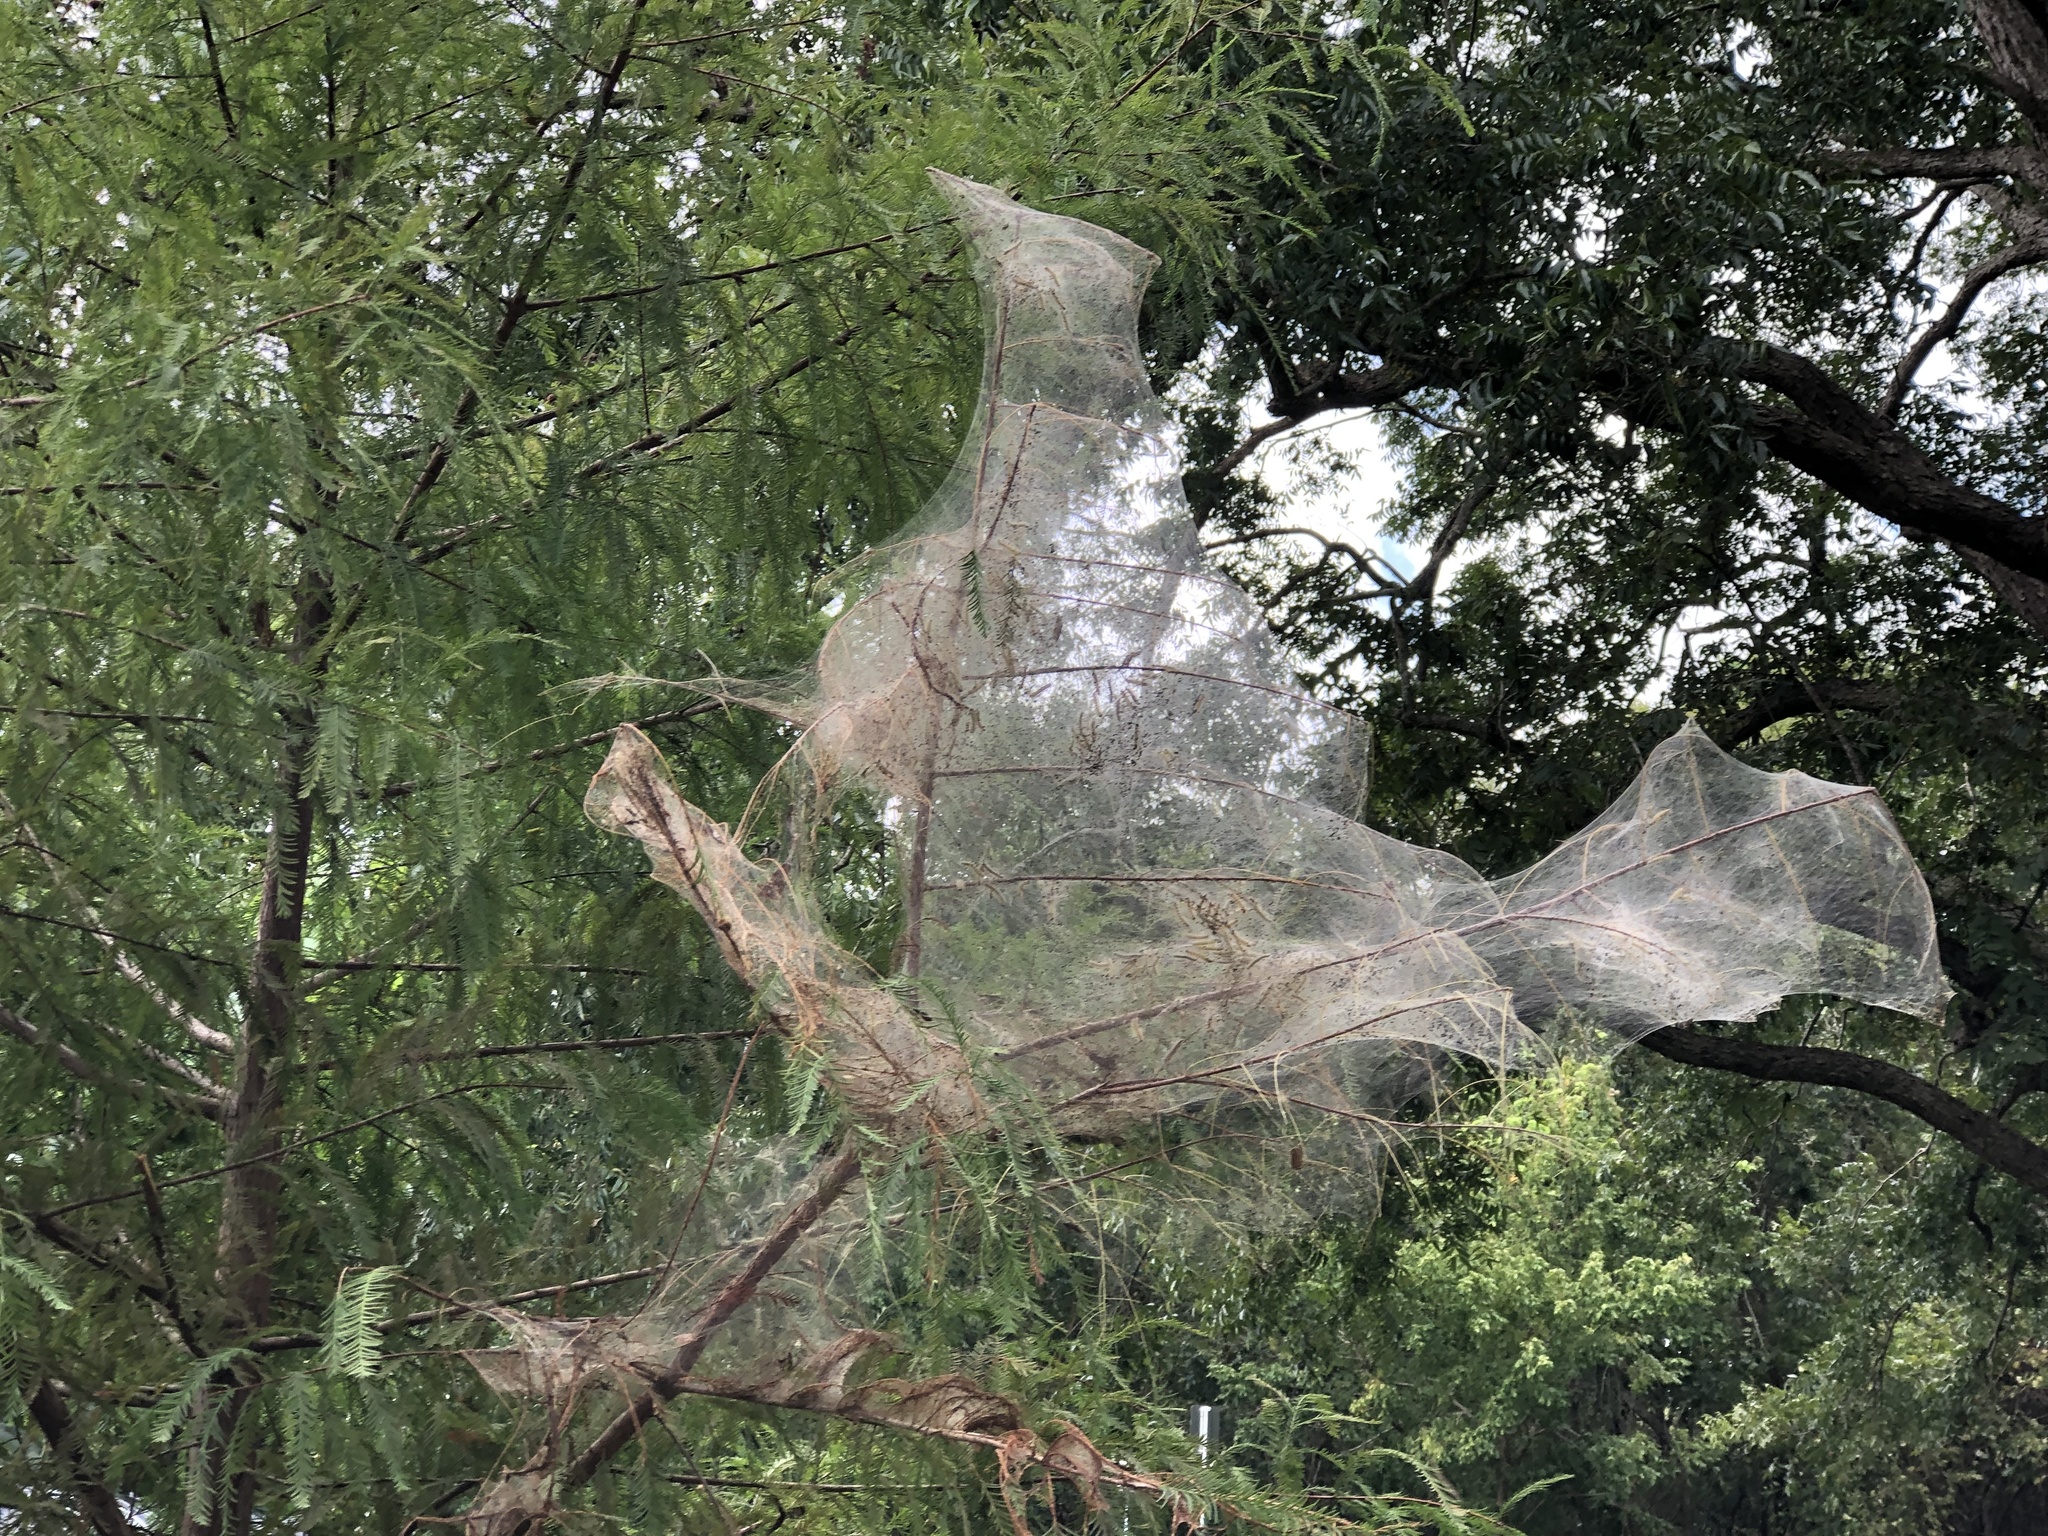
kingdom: Animalia
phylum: Arthropoda
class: Insecta
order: Lepidoptera
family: Erebidae
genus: Hyphantria
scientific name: Hyphantria cunea
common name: American white moth
